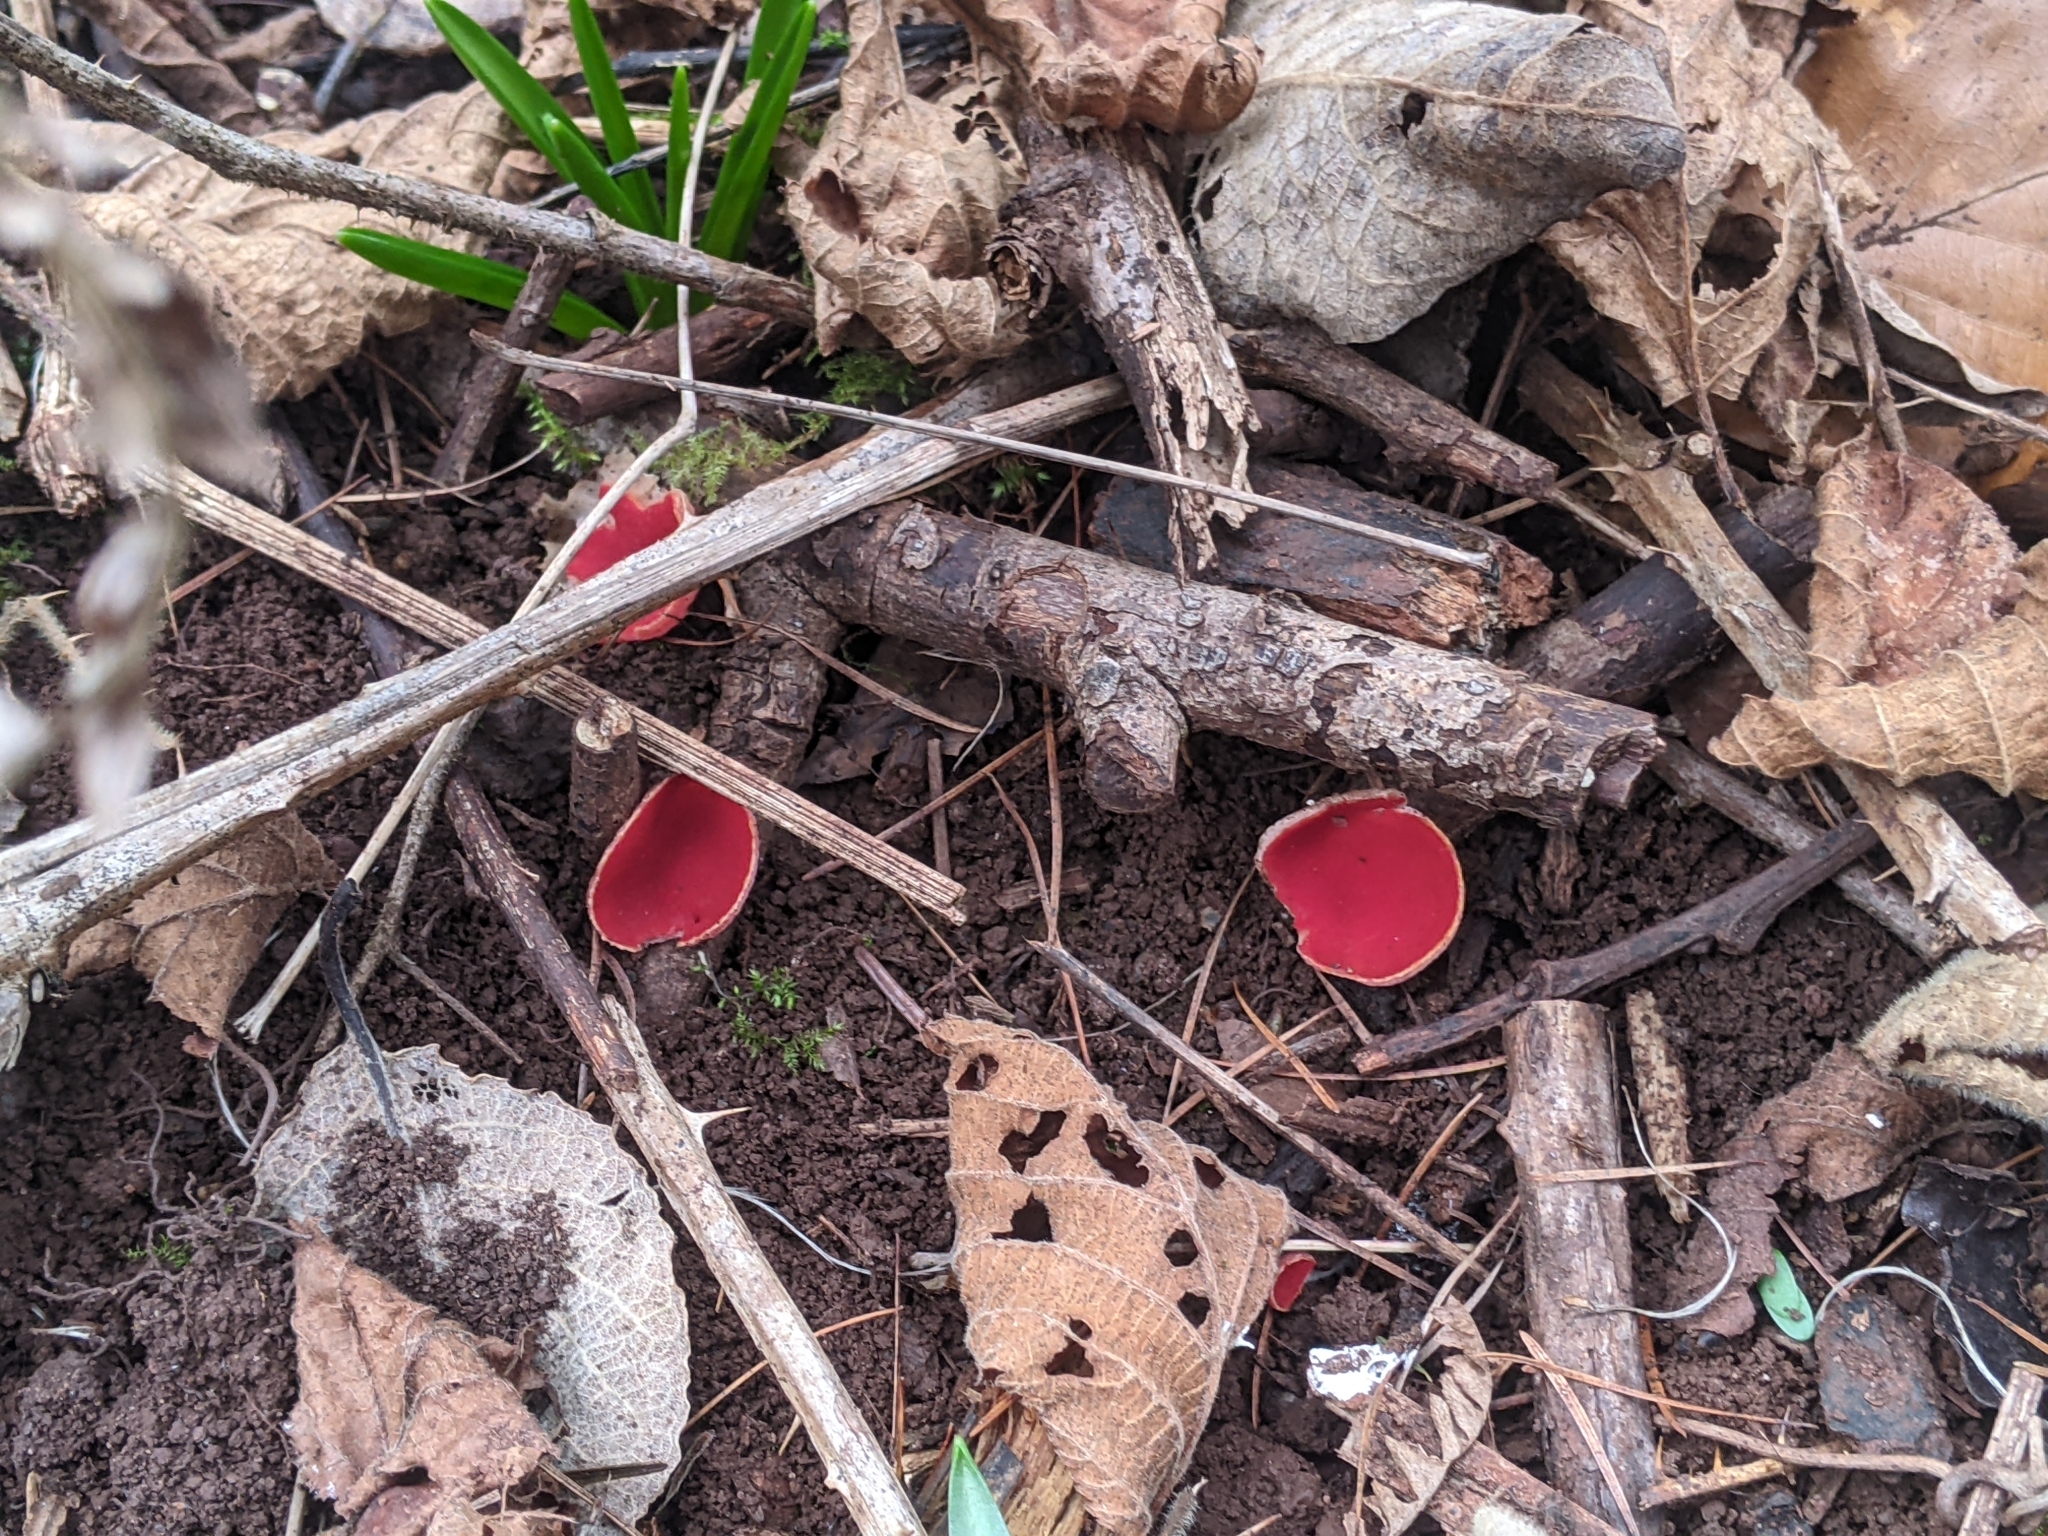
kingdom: Fungi
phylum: Ascomycota
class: Pezizomycetes
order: Pezizales
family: Sarcoscyphaceae
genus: Sarcoscypha
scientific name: Sarcoscypha
